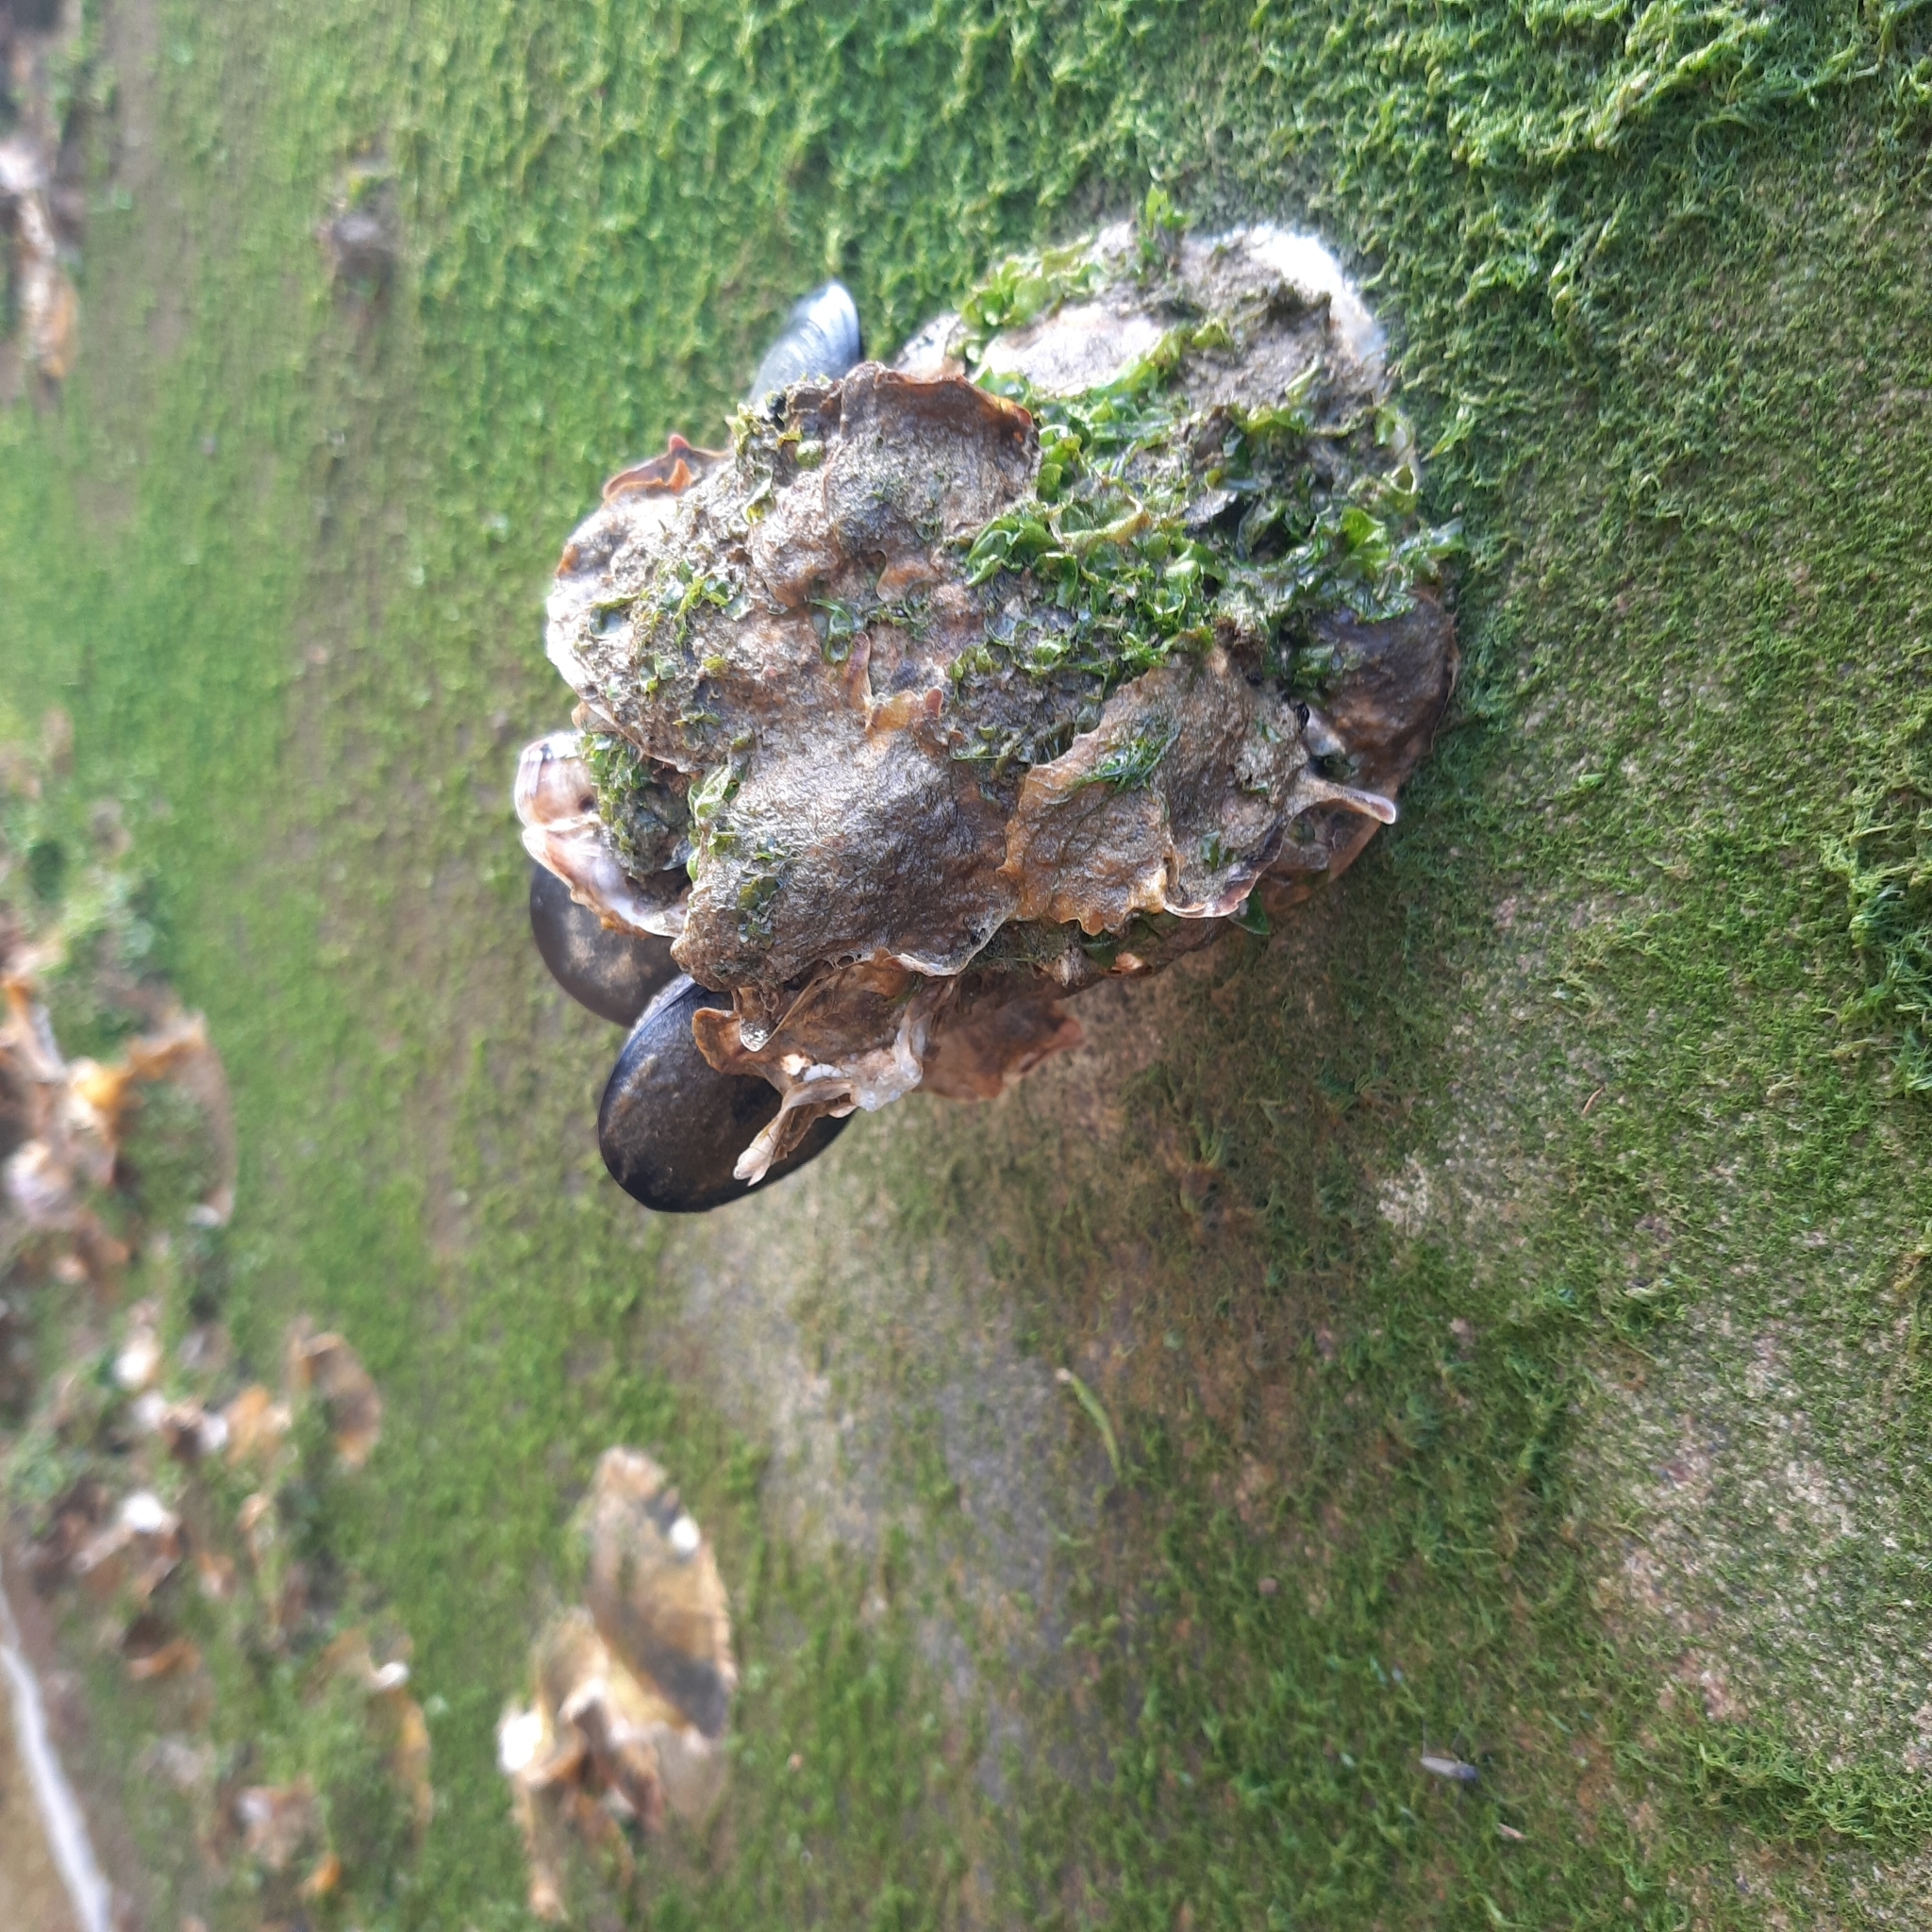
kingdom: Animalia
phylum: Mollusca
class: Bivalvia
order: Ostreida
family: Ostreidae
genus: Magallana
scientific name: Magallana gigas
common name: Pacific oyster
